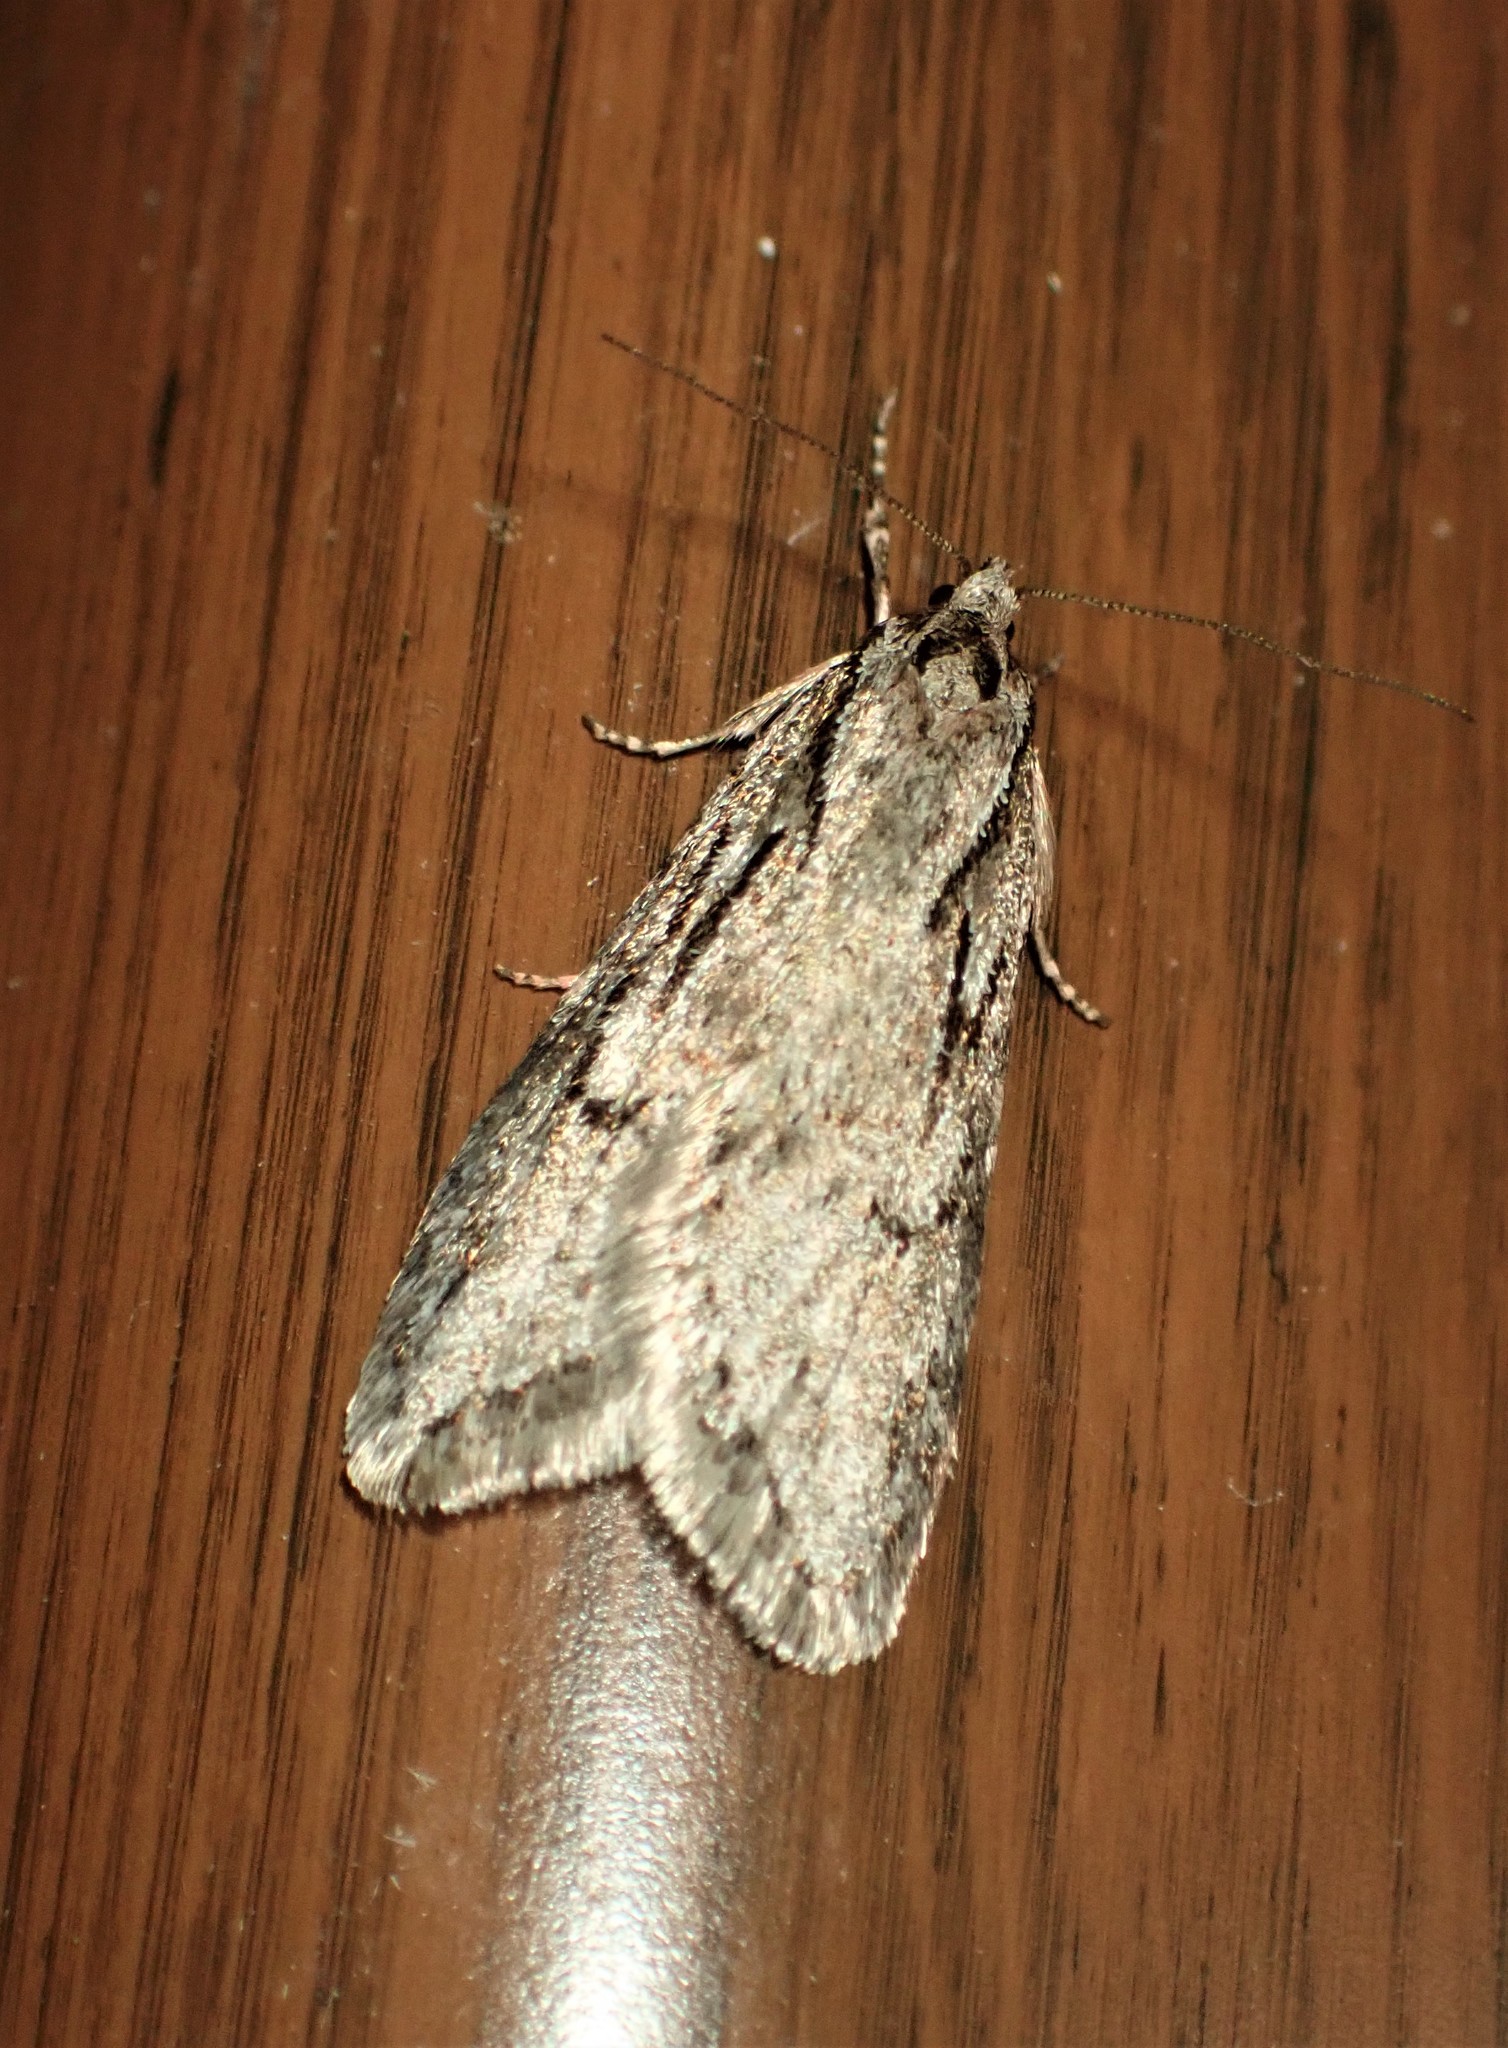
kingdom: Animalia
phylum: Arthropoda
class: Insecta
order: Lepidoptera
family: Depressariidae
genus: Semioscopis
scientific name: Semioscopis aurorella
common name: Aurora flatbody moth
